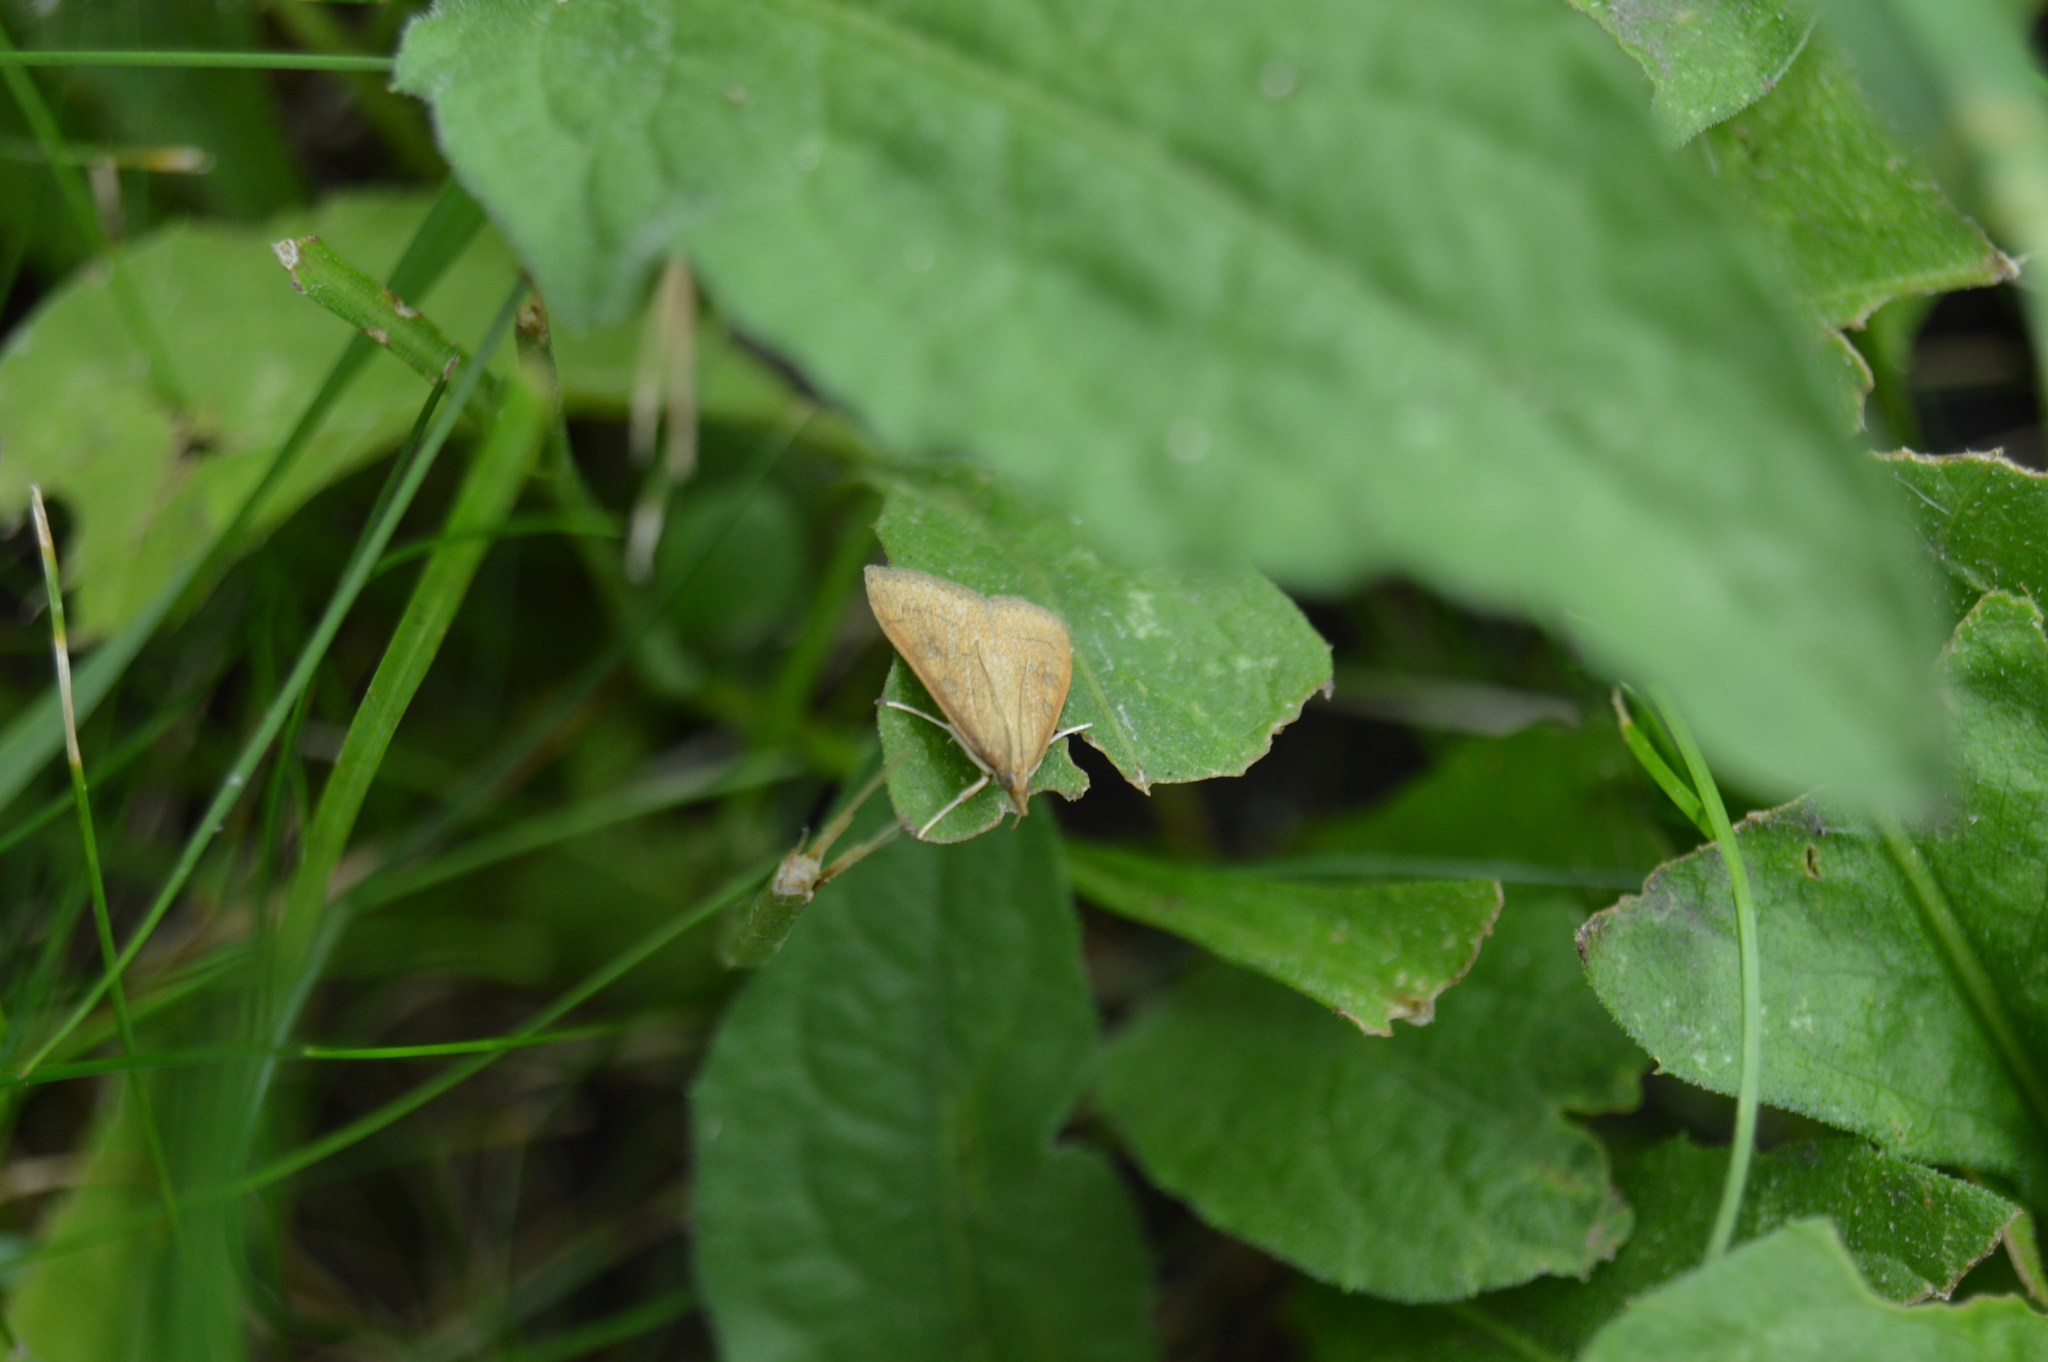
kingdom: Animalia
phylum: Arthropoda
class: Insecta
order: Lepidoptera
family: Crambidae
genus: Udea
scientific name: Udea rubigalis
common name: Celery leaftier moth
